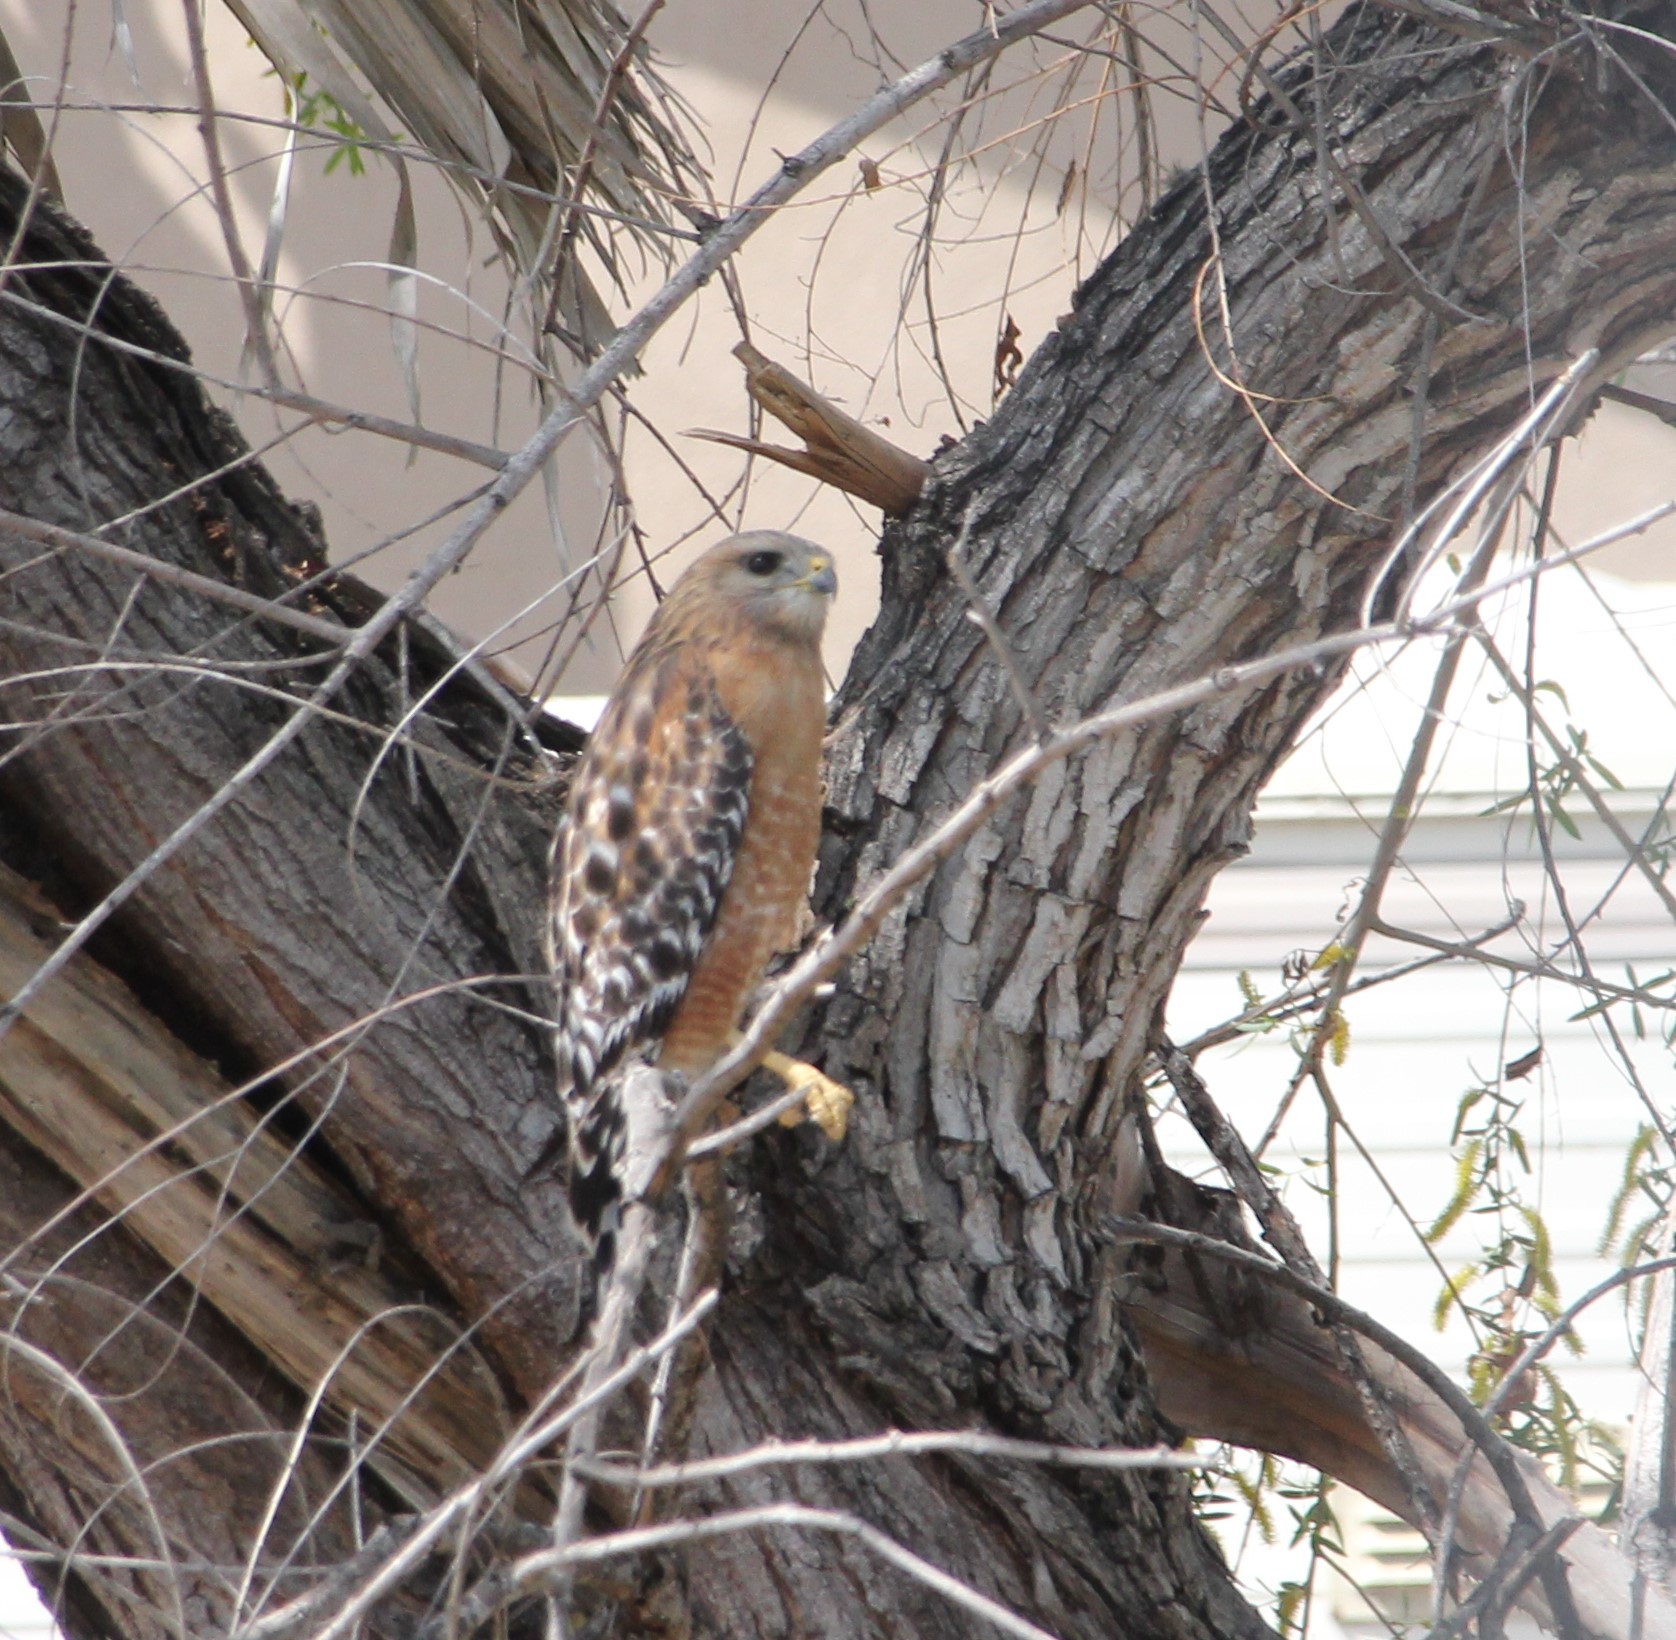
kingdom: Animalia
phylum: Chordata
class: Aves
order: Accipitriformes
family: Accipitridae
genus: Buteo
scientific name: Buteo lineatus
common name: Red-shouldered hawk
